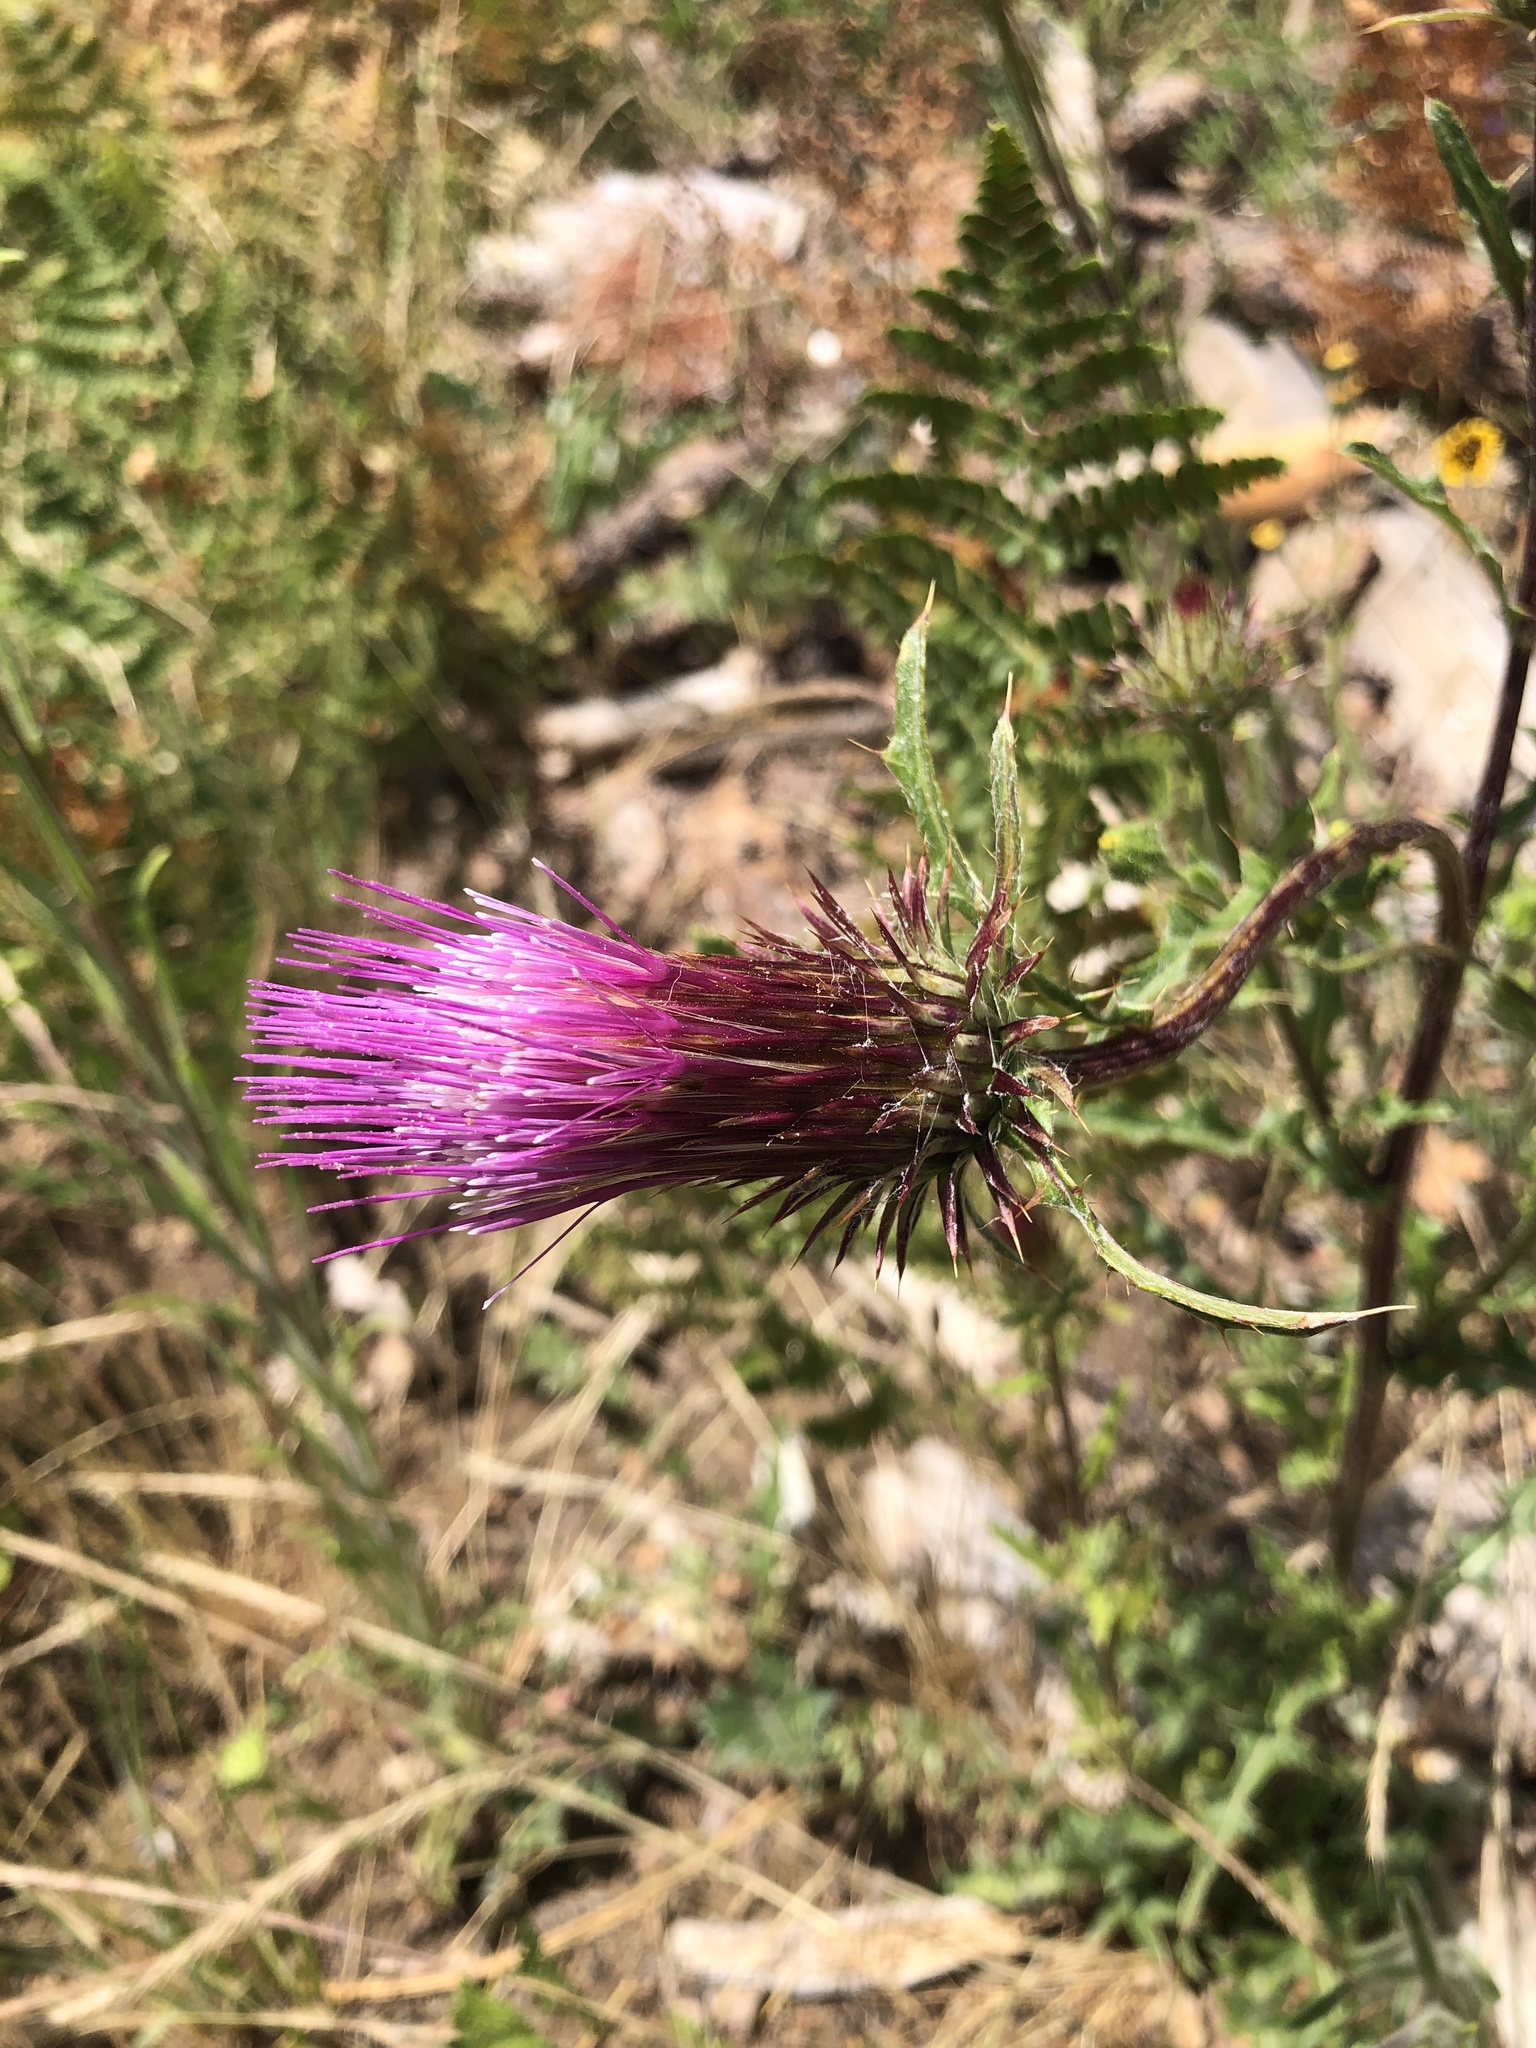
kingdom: Plantae
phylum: Tracheophyta
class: Magnoliopsida
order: Asterales
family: Asteraceae
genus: Cirsium
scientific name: Cirsium andersonii
